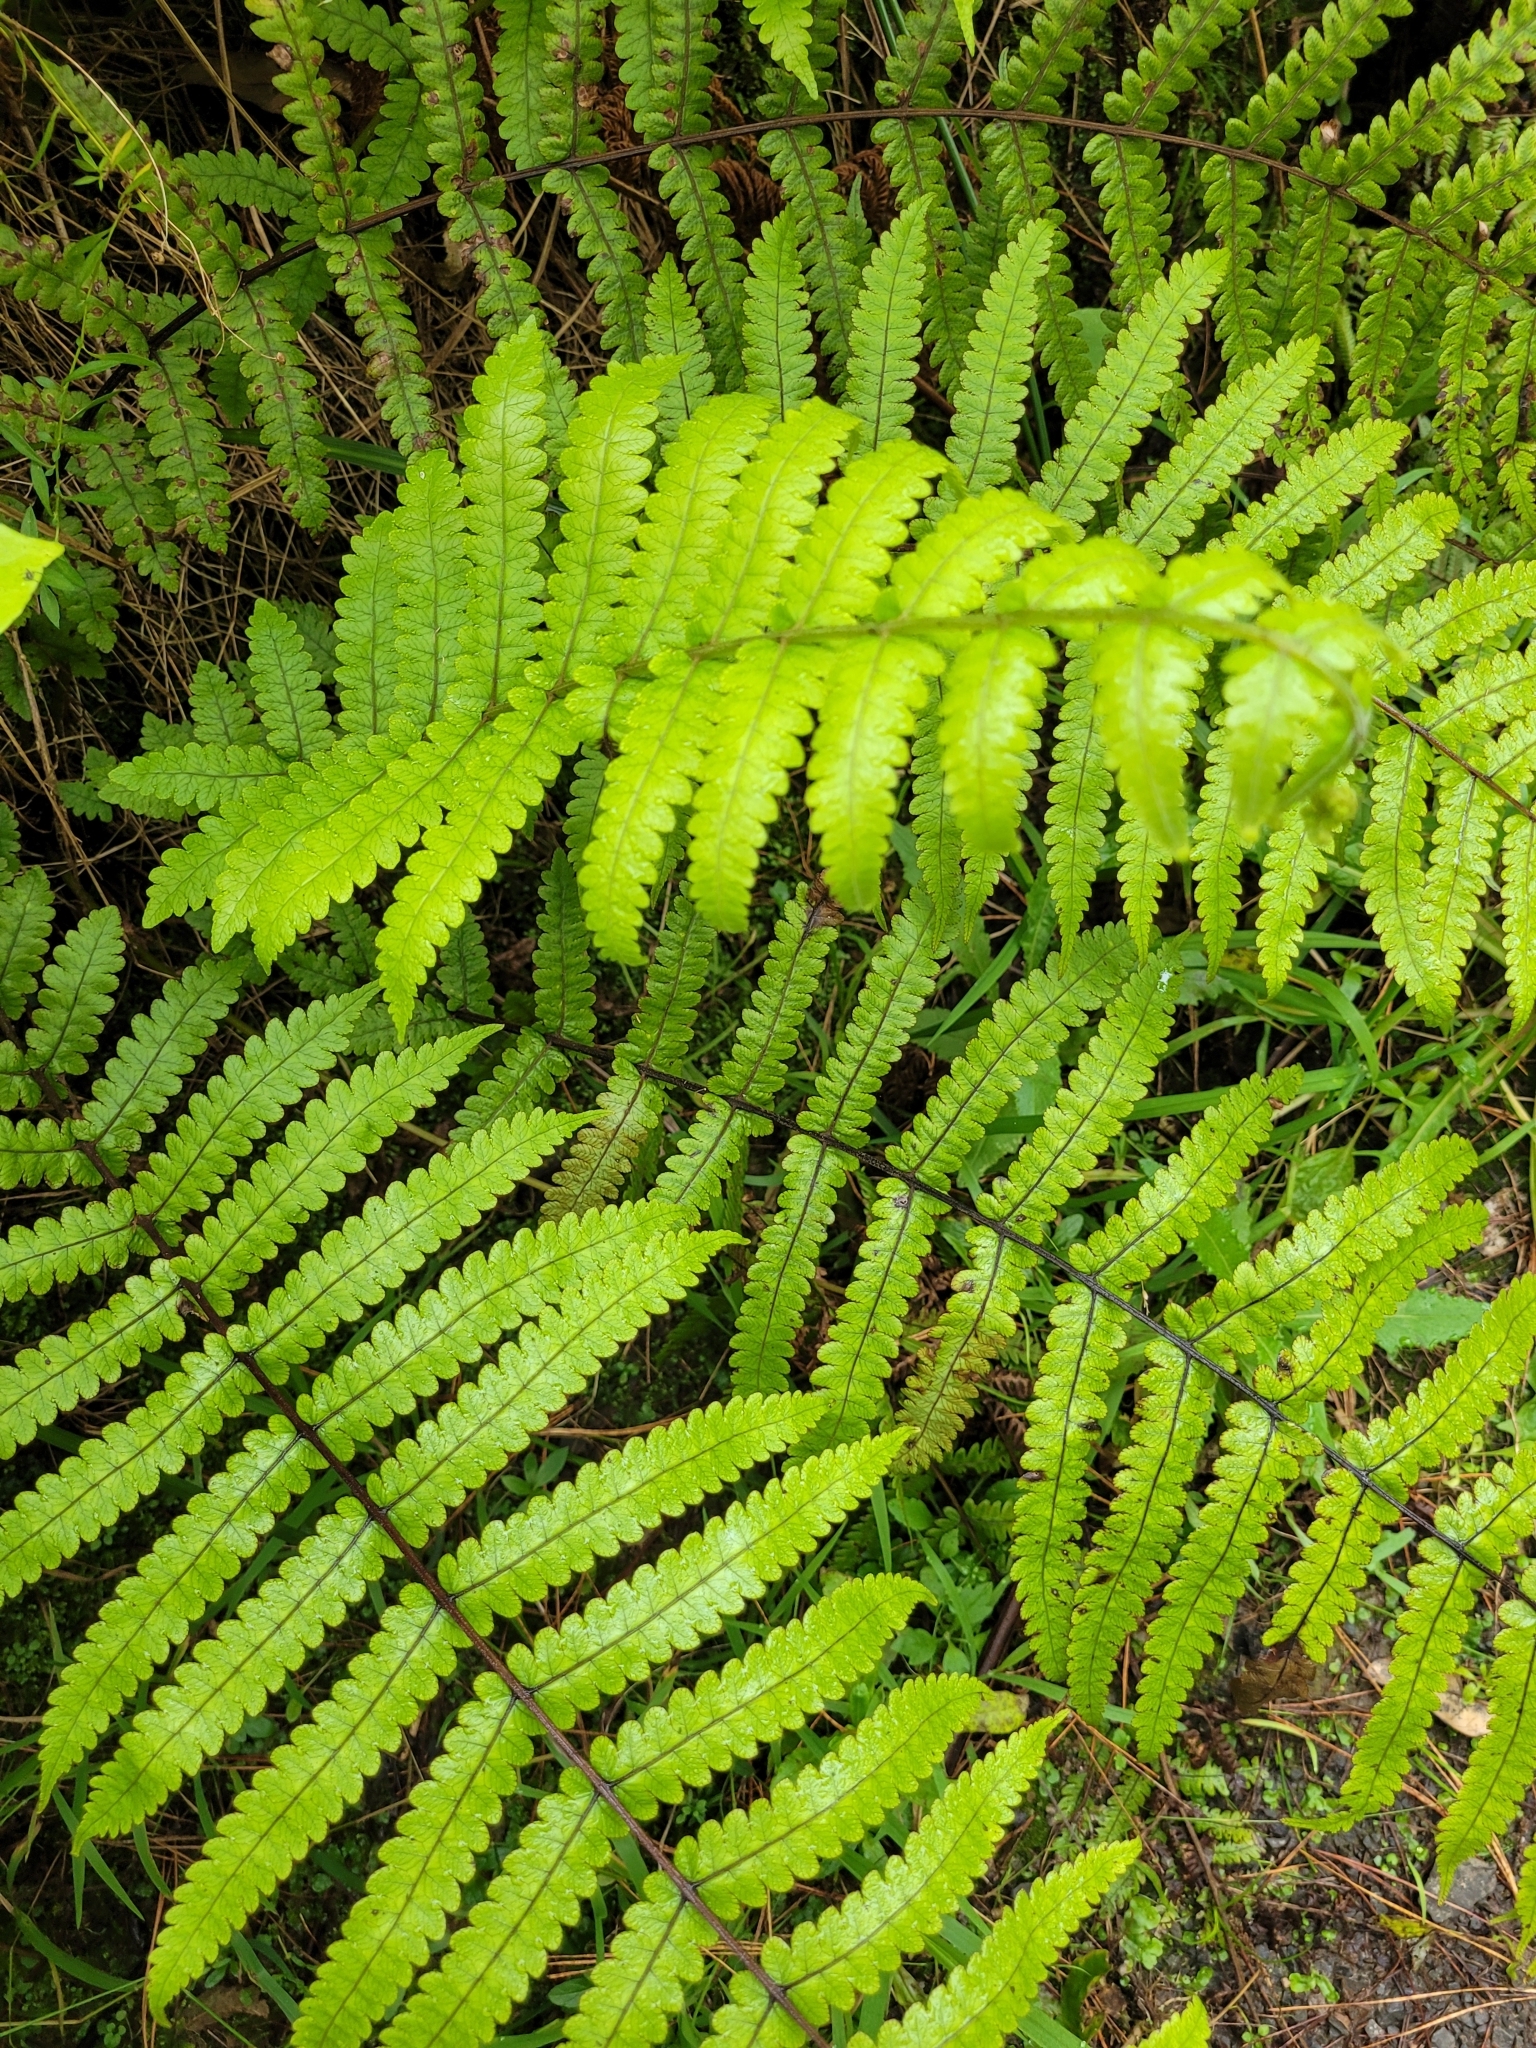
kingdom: Plantae
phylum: Tracheophyta
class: Polypodiopsida
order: Polypodiales
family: Thelypteridaceae
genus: Pakau
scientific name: Pakau pennigera
